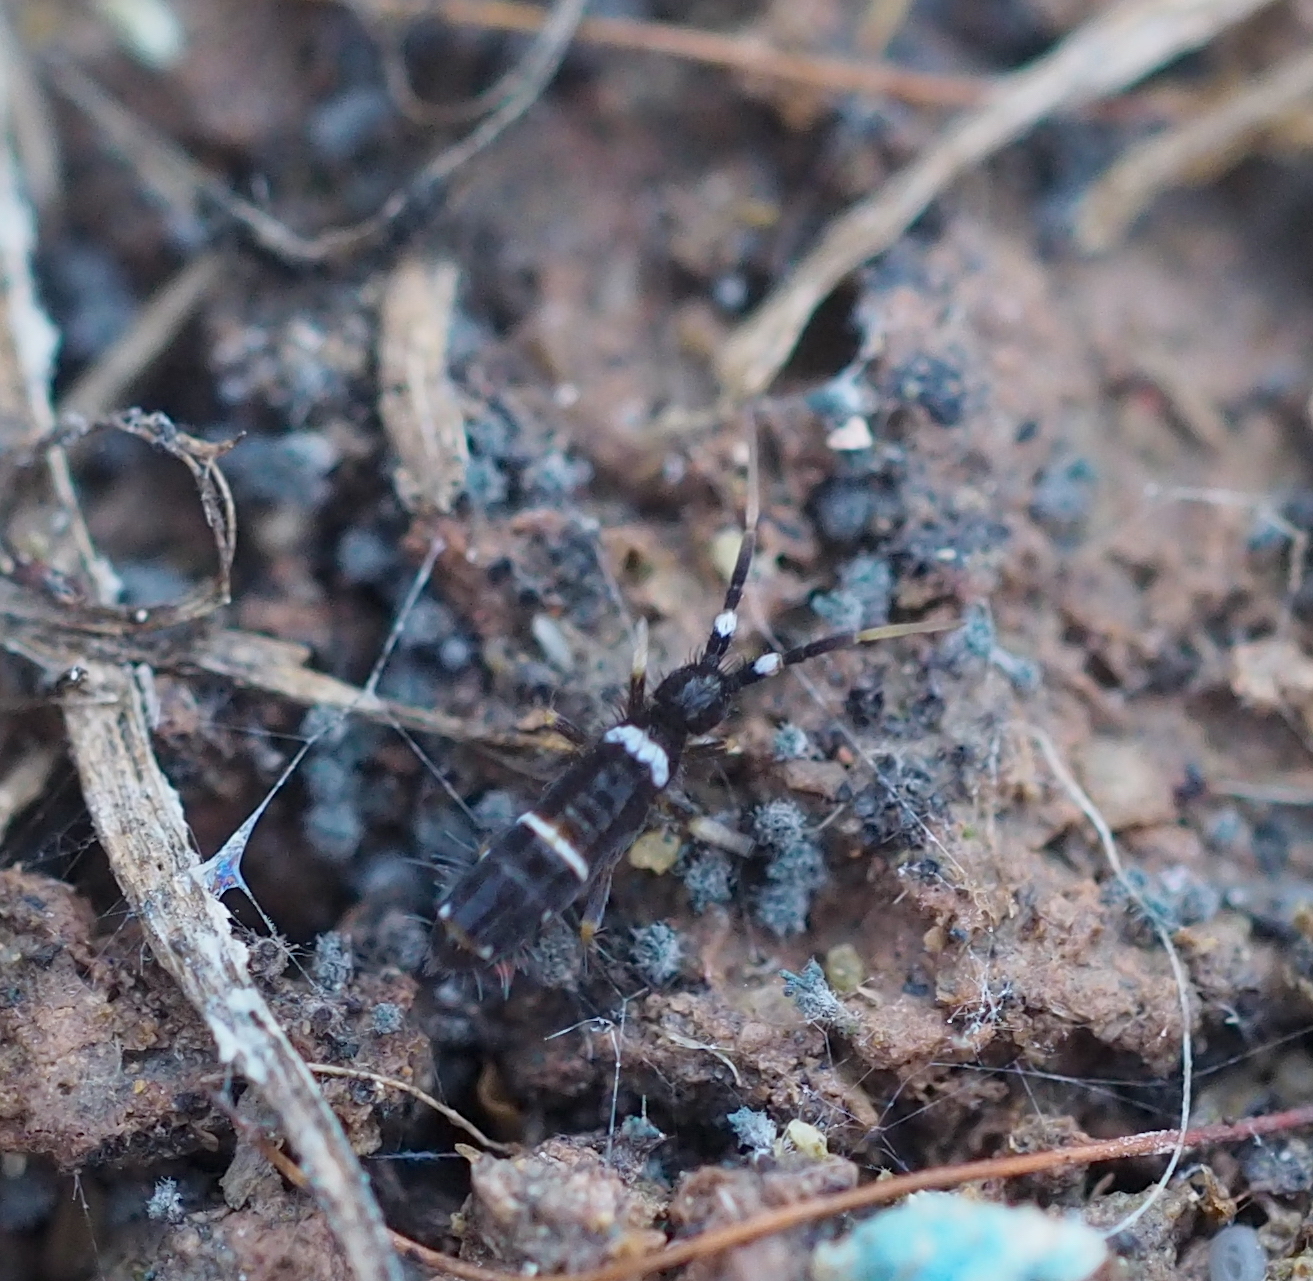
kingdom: Animalia
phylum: Arthropoda
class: Collembola
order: Entomobryomorpha
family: Orchesellidae
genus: Orchesella
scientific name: Orchesella cincta
